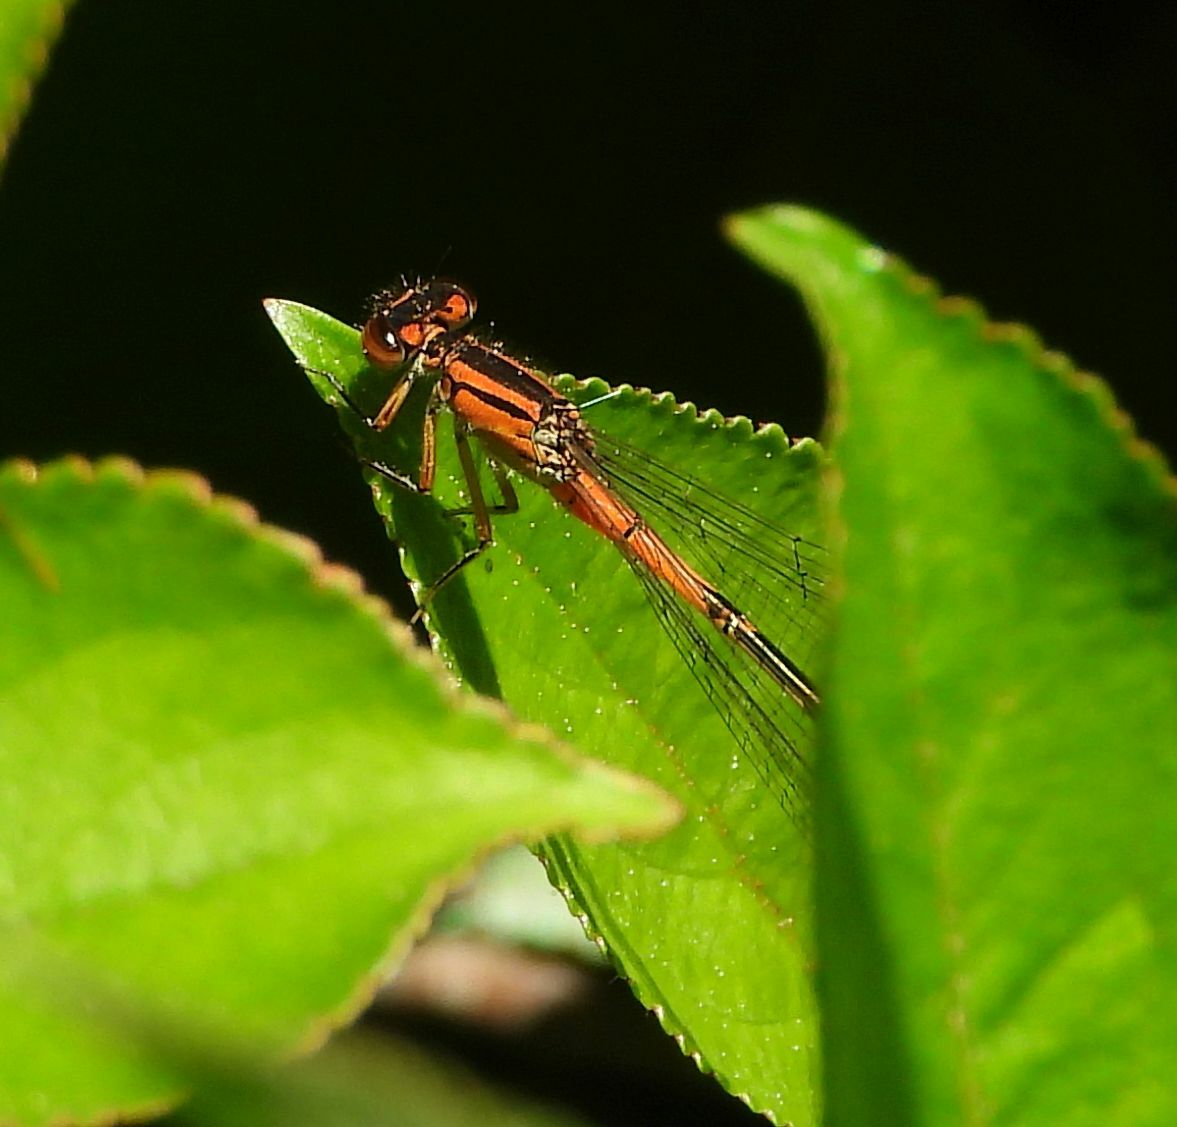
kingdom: Animalia
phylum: Arthropoda
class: Insecta
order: Odonata
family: Coenagrionidae
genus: Ischnura
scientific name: Ischnura verticalis
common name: Eastern forktail
